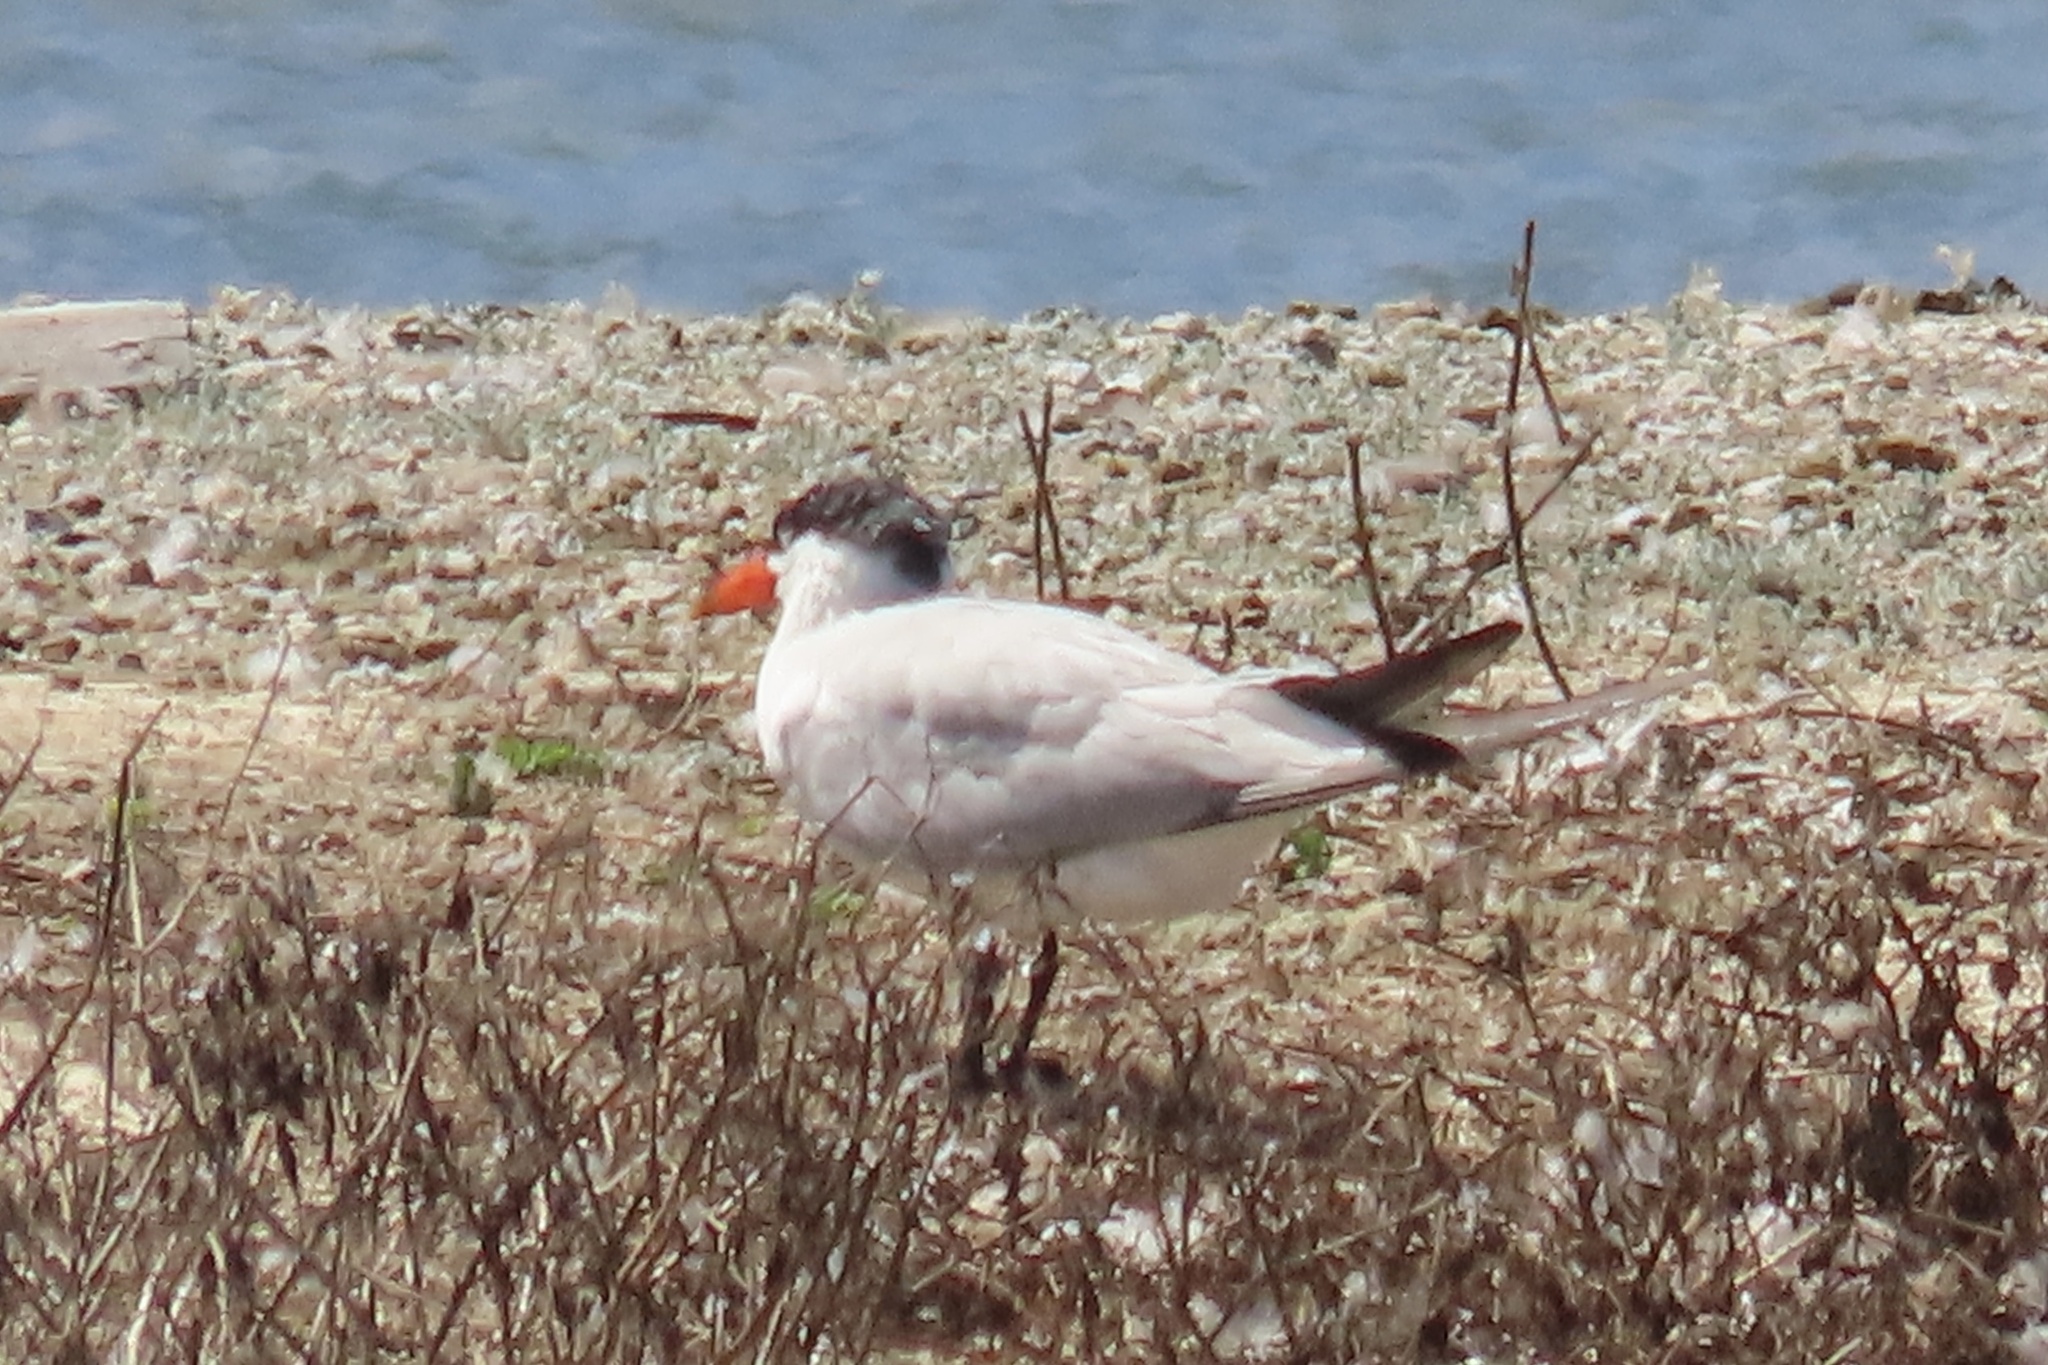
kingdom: Animalia
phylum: Chordata
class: Aves
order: Charadriiformes
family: Laridae
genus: Hydroprogne
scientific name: Hydroprogne caspia
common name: Caspian tern
